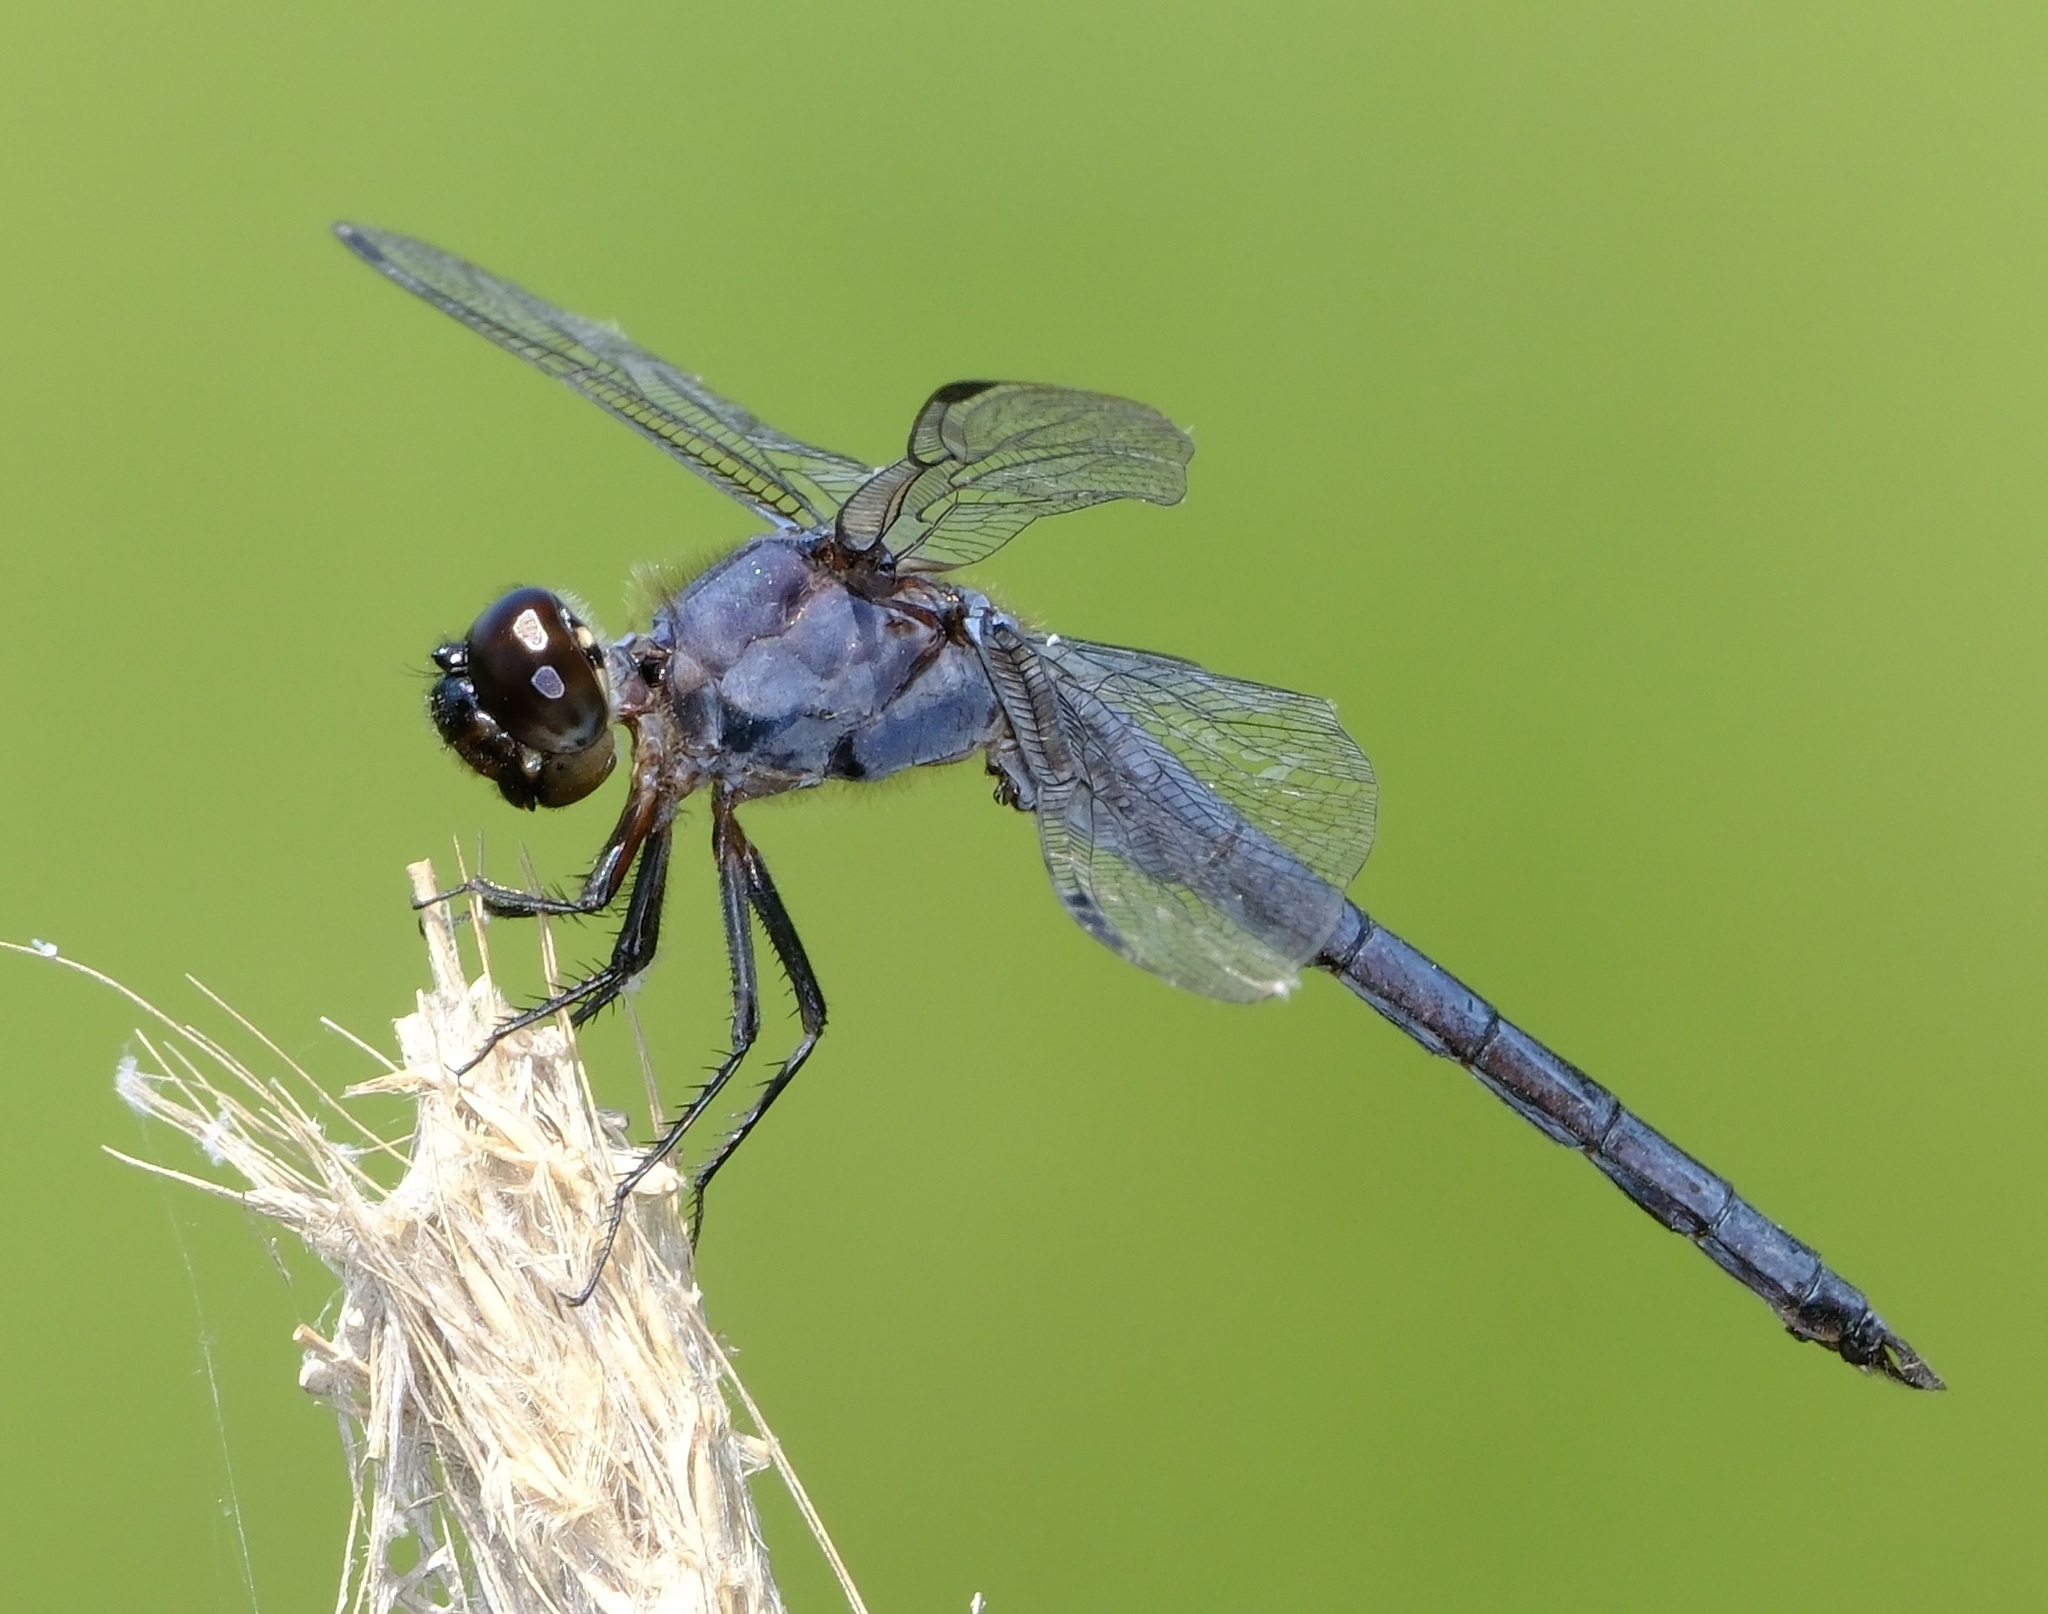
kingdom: Animalia
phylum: Arthropoda
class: Insecta
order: Odonata
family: Libellulidae
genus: Libellula
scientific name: Libellula incesta
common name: Slaty skimmer
